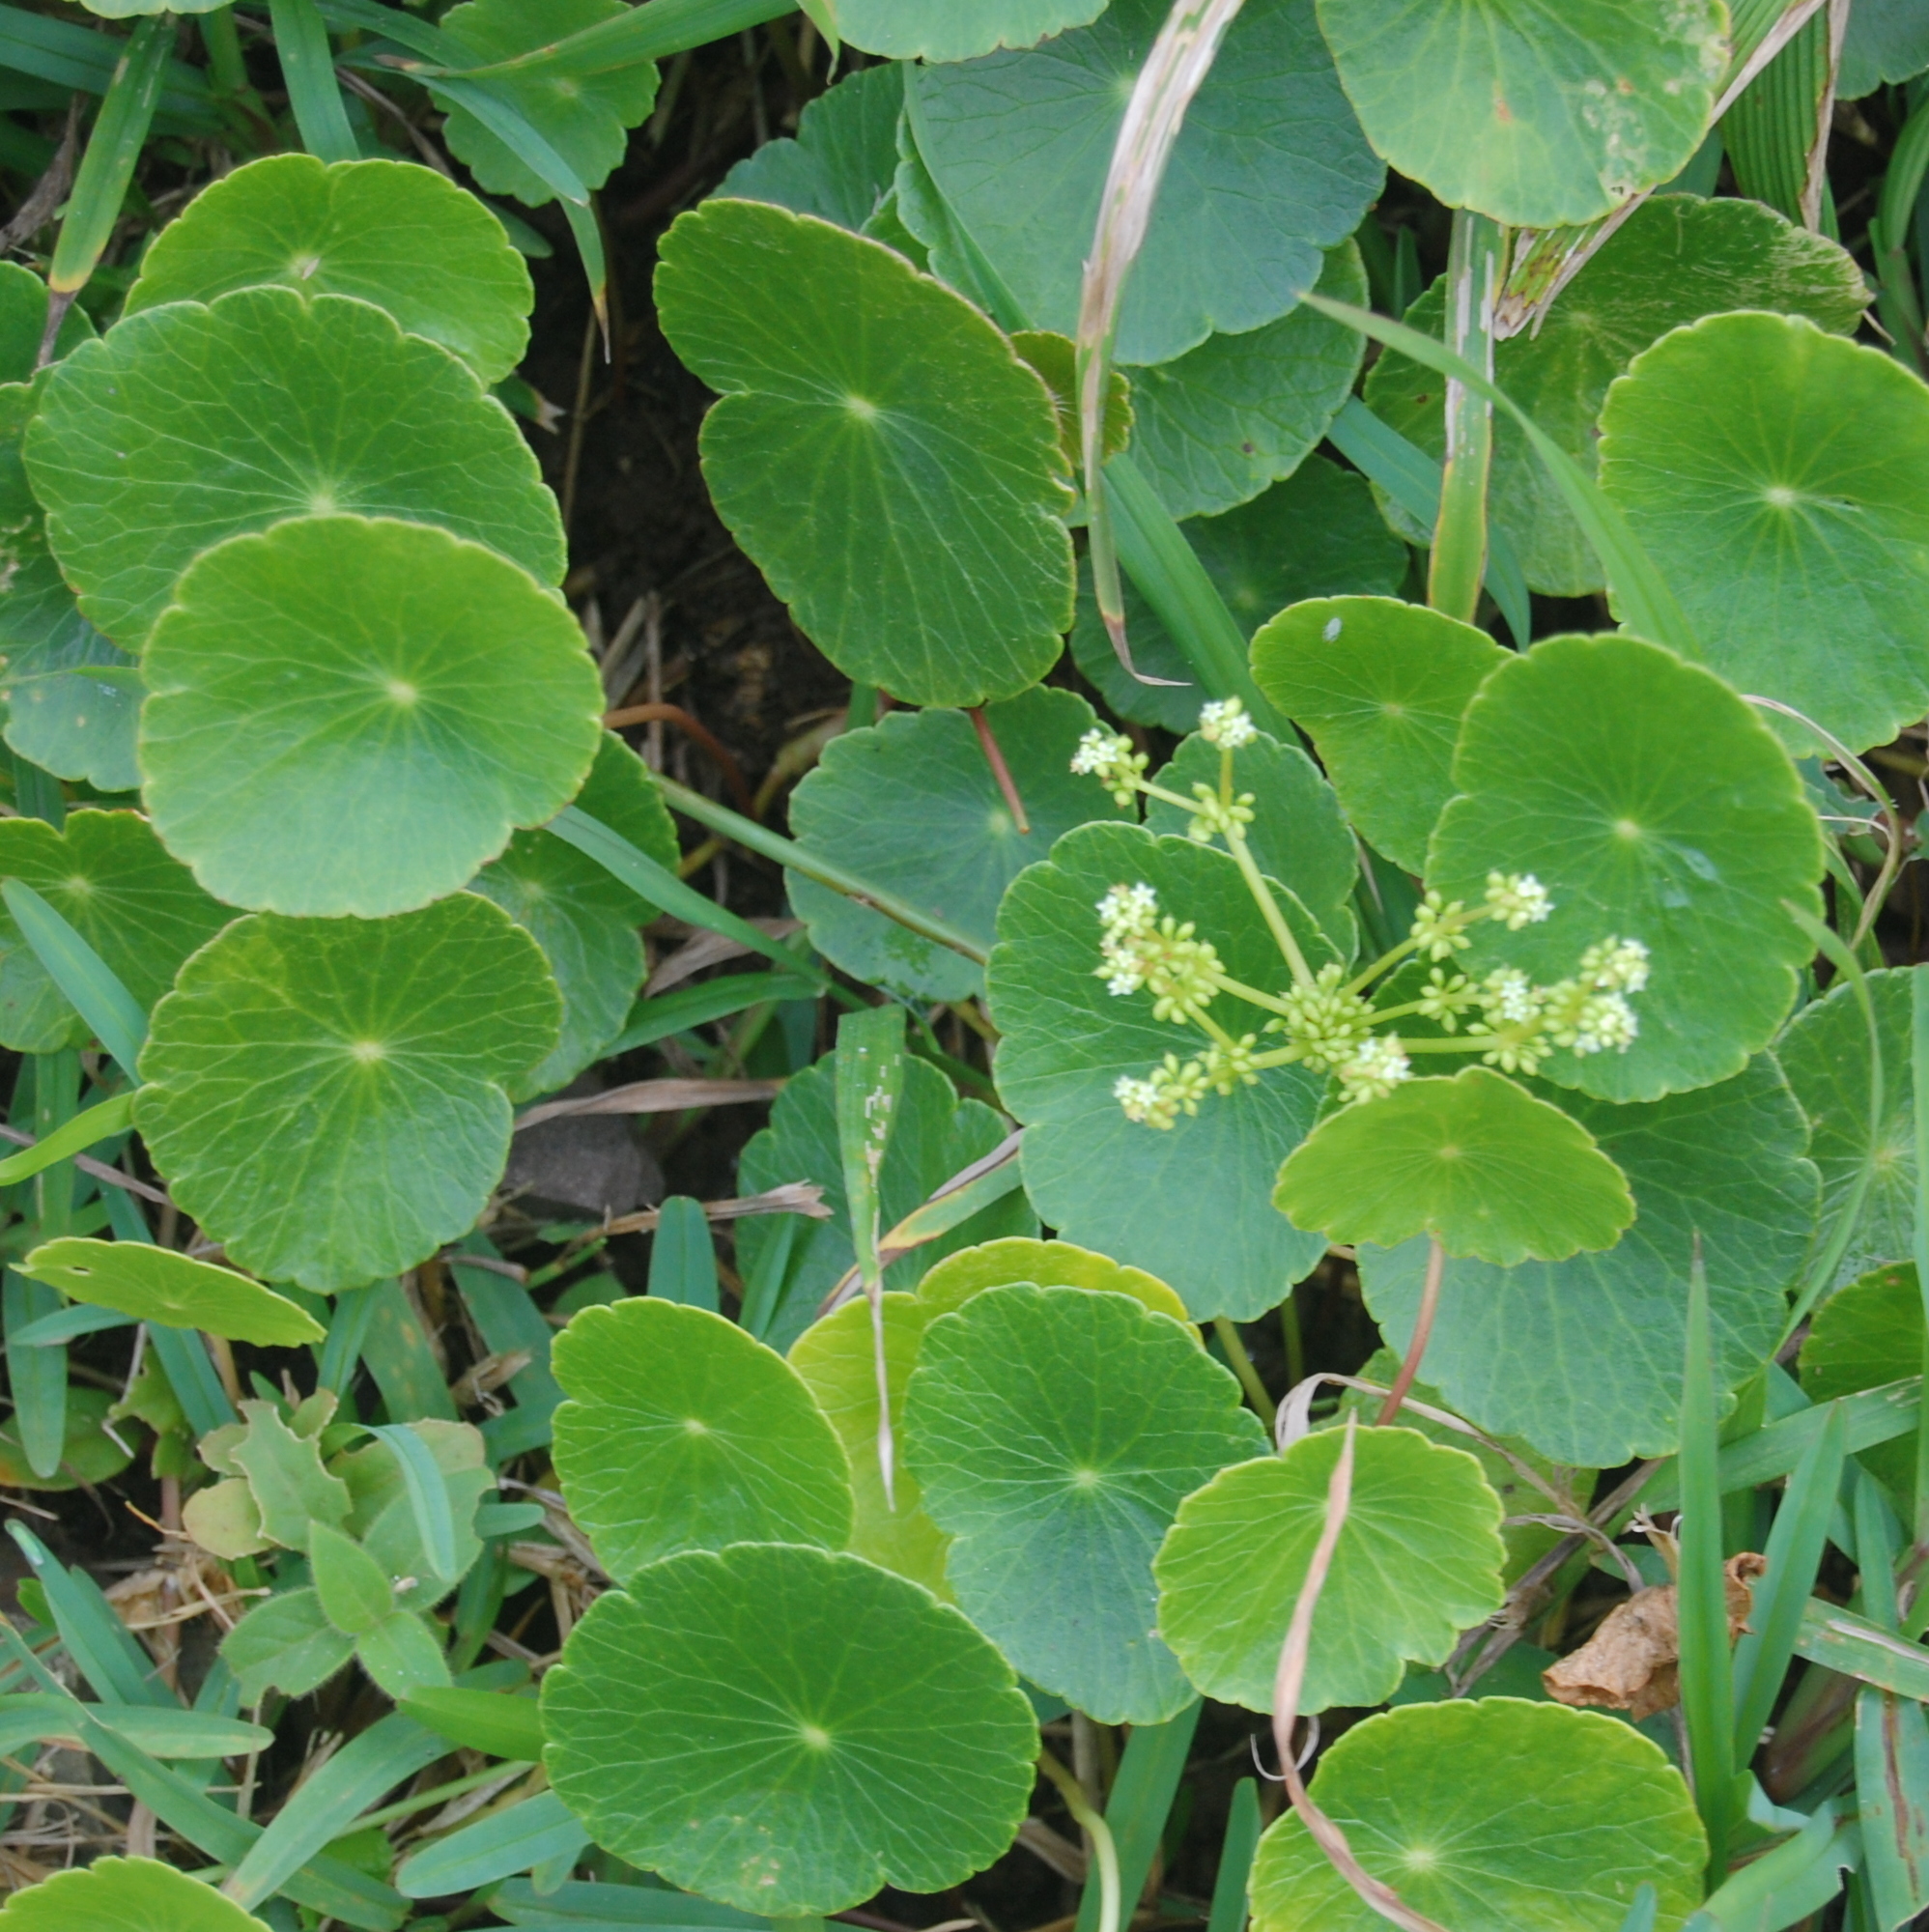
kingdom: Plantae
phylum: Tracheophyta
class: Magnoliopsida
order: Apiales
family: Araliaceae
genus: Hydrocotyle
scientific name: Hydrocotyle bonariensis
